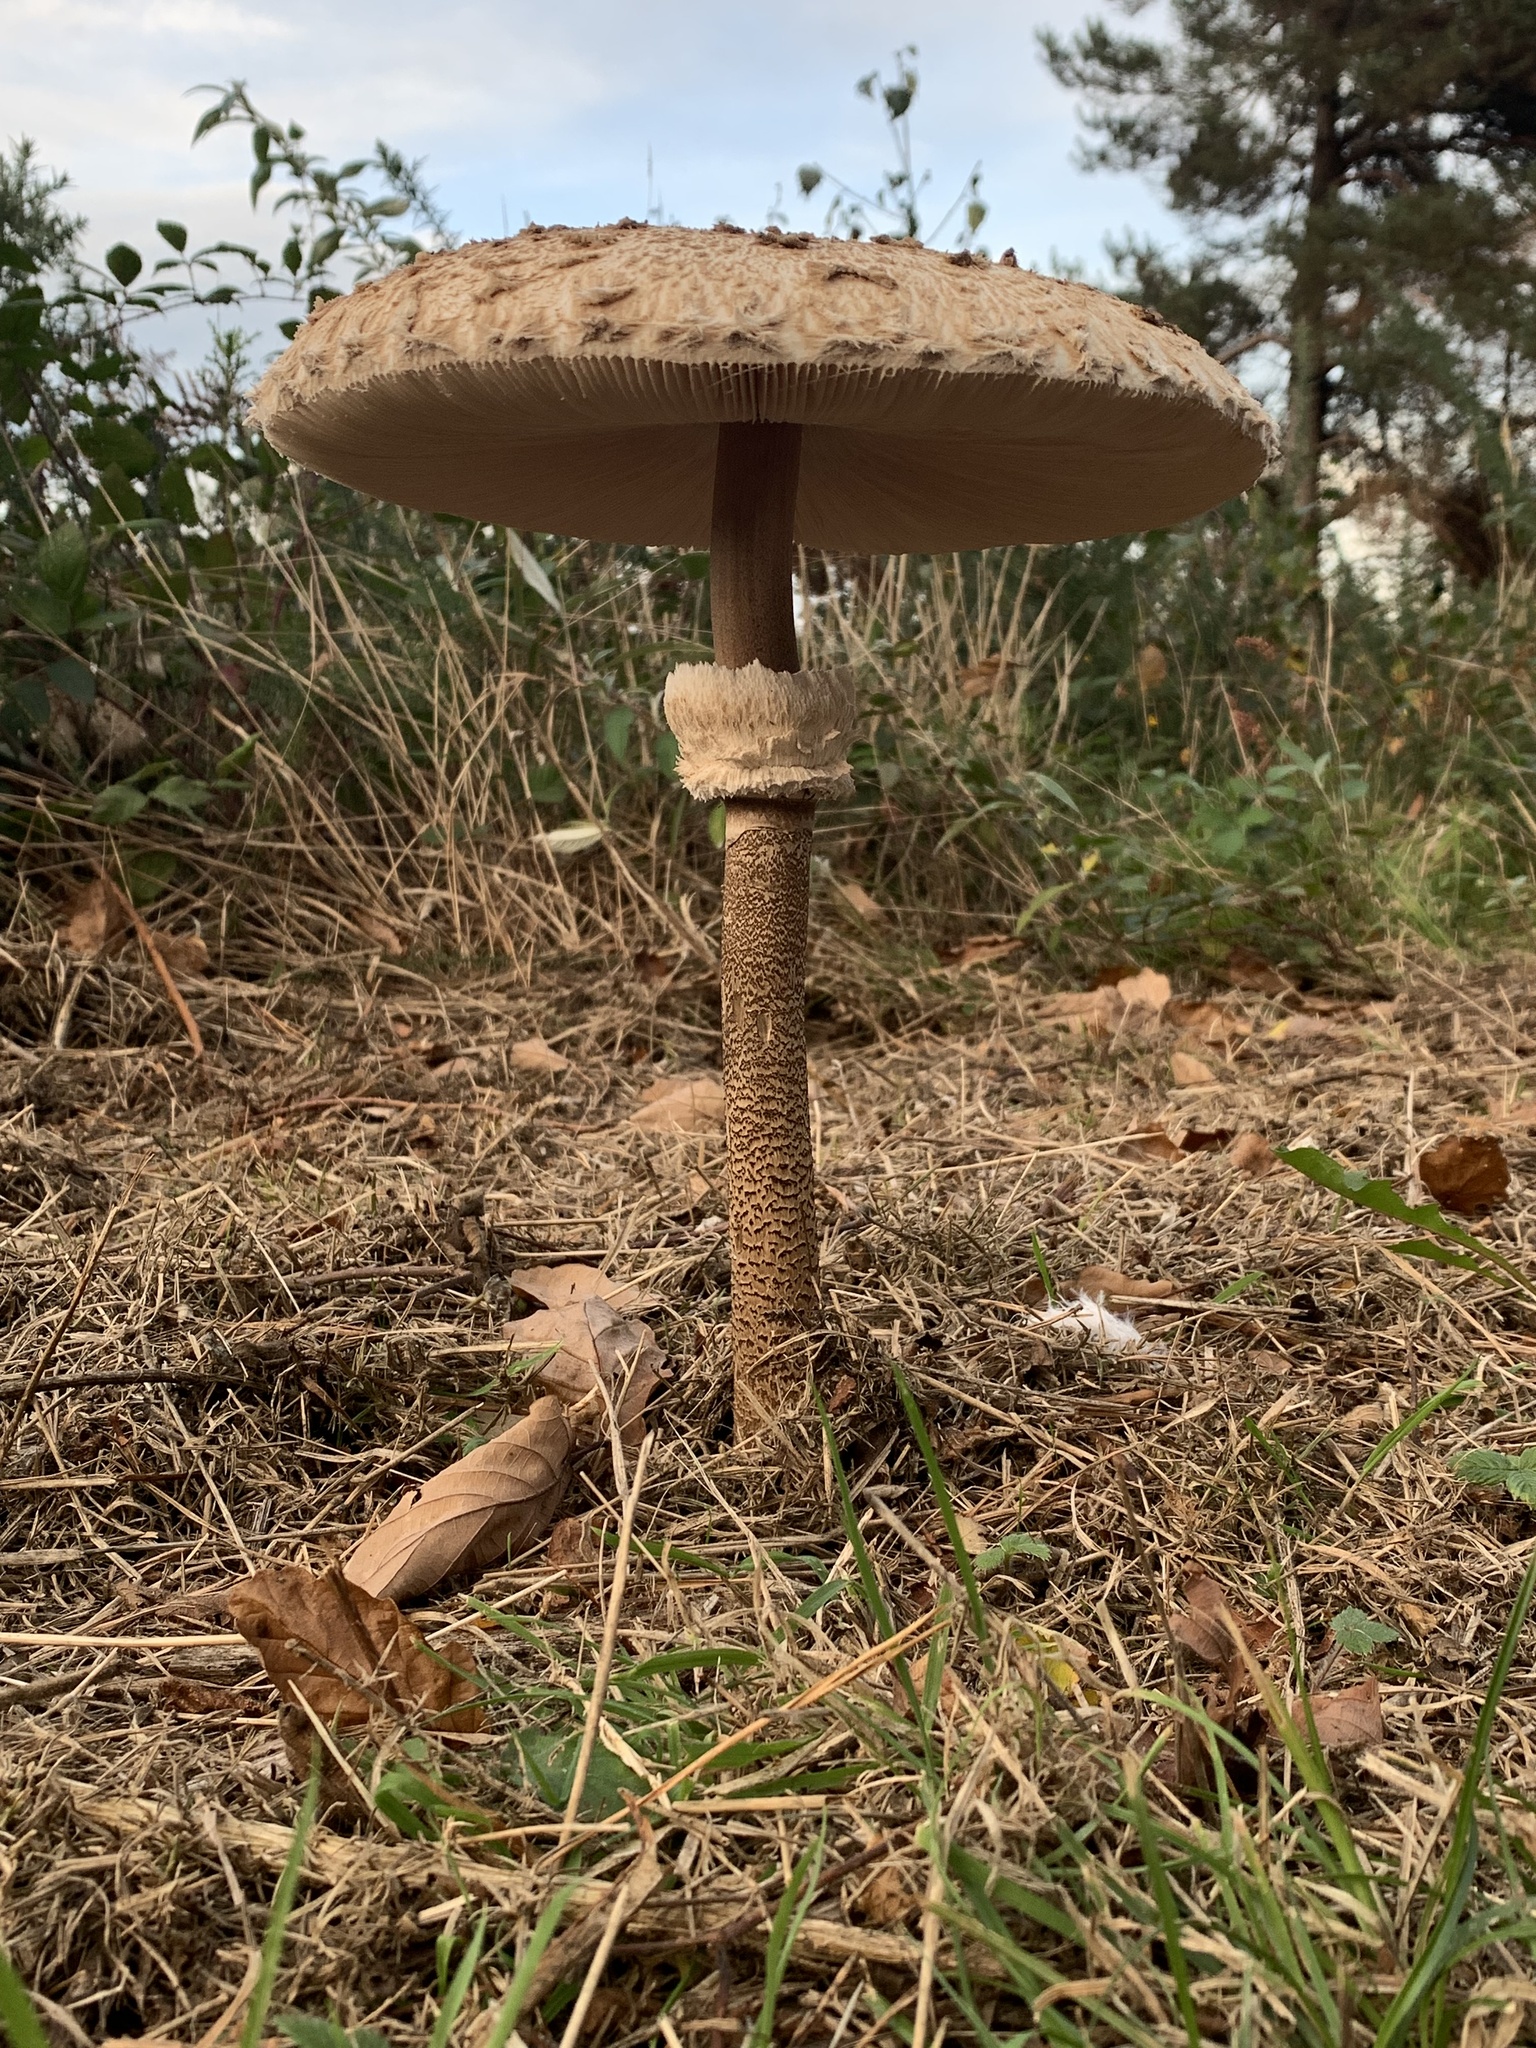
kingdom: Fungi
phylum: Basidiomycota
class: Agaricomycetes
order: Agaricales
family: Agaricaceae
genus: Macrolepiota
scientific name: Macrolepiota procera
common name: Parasol
